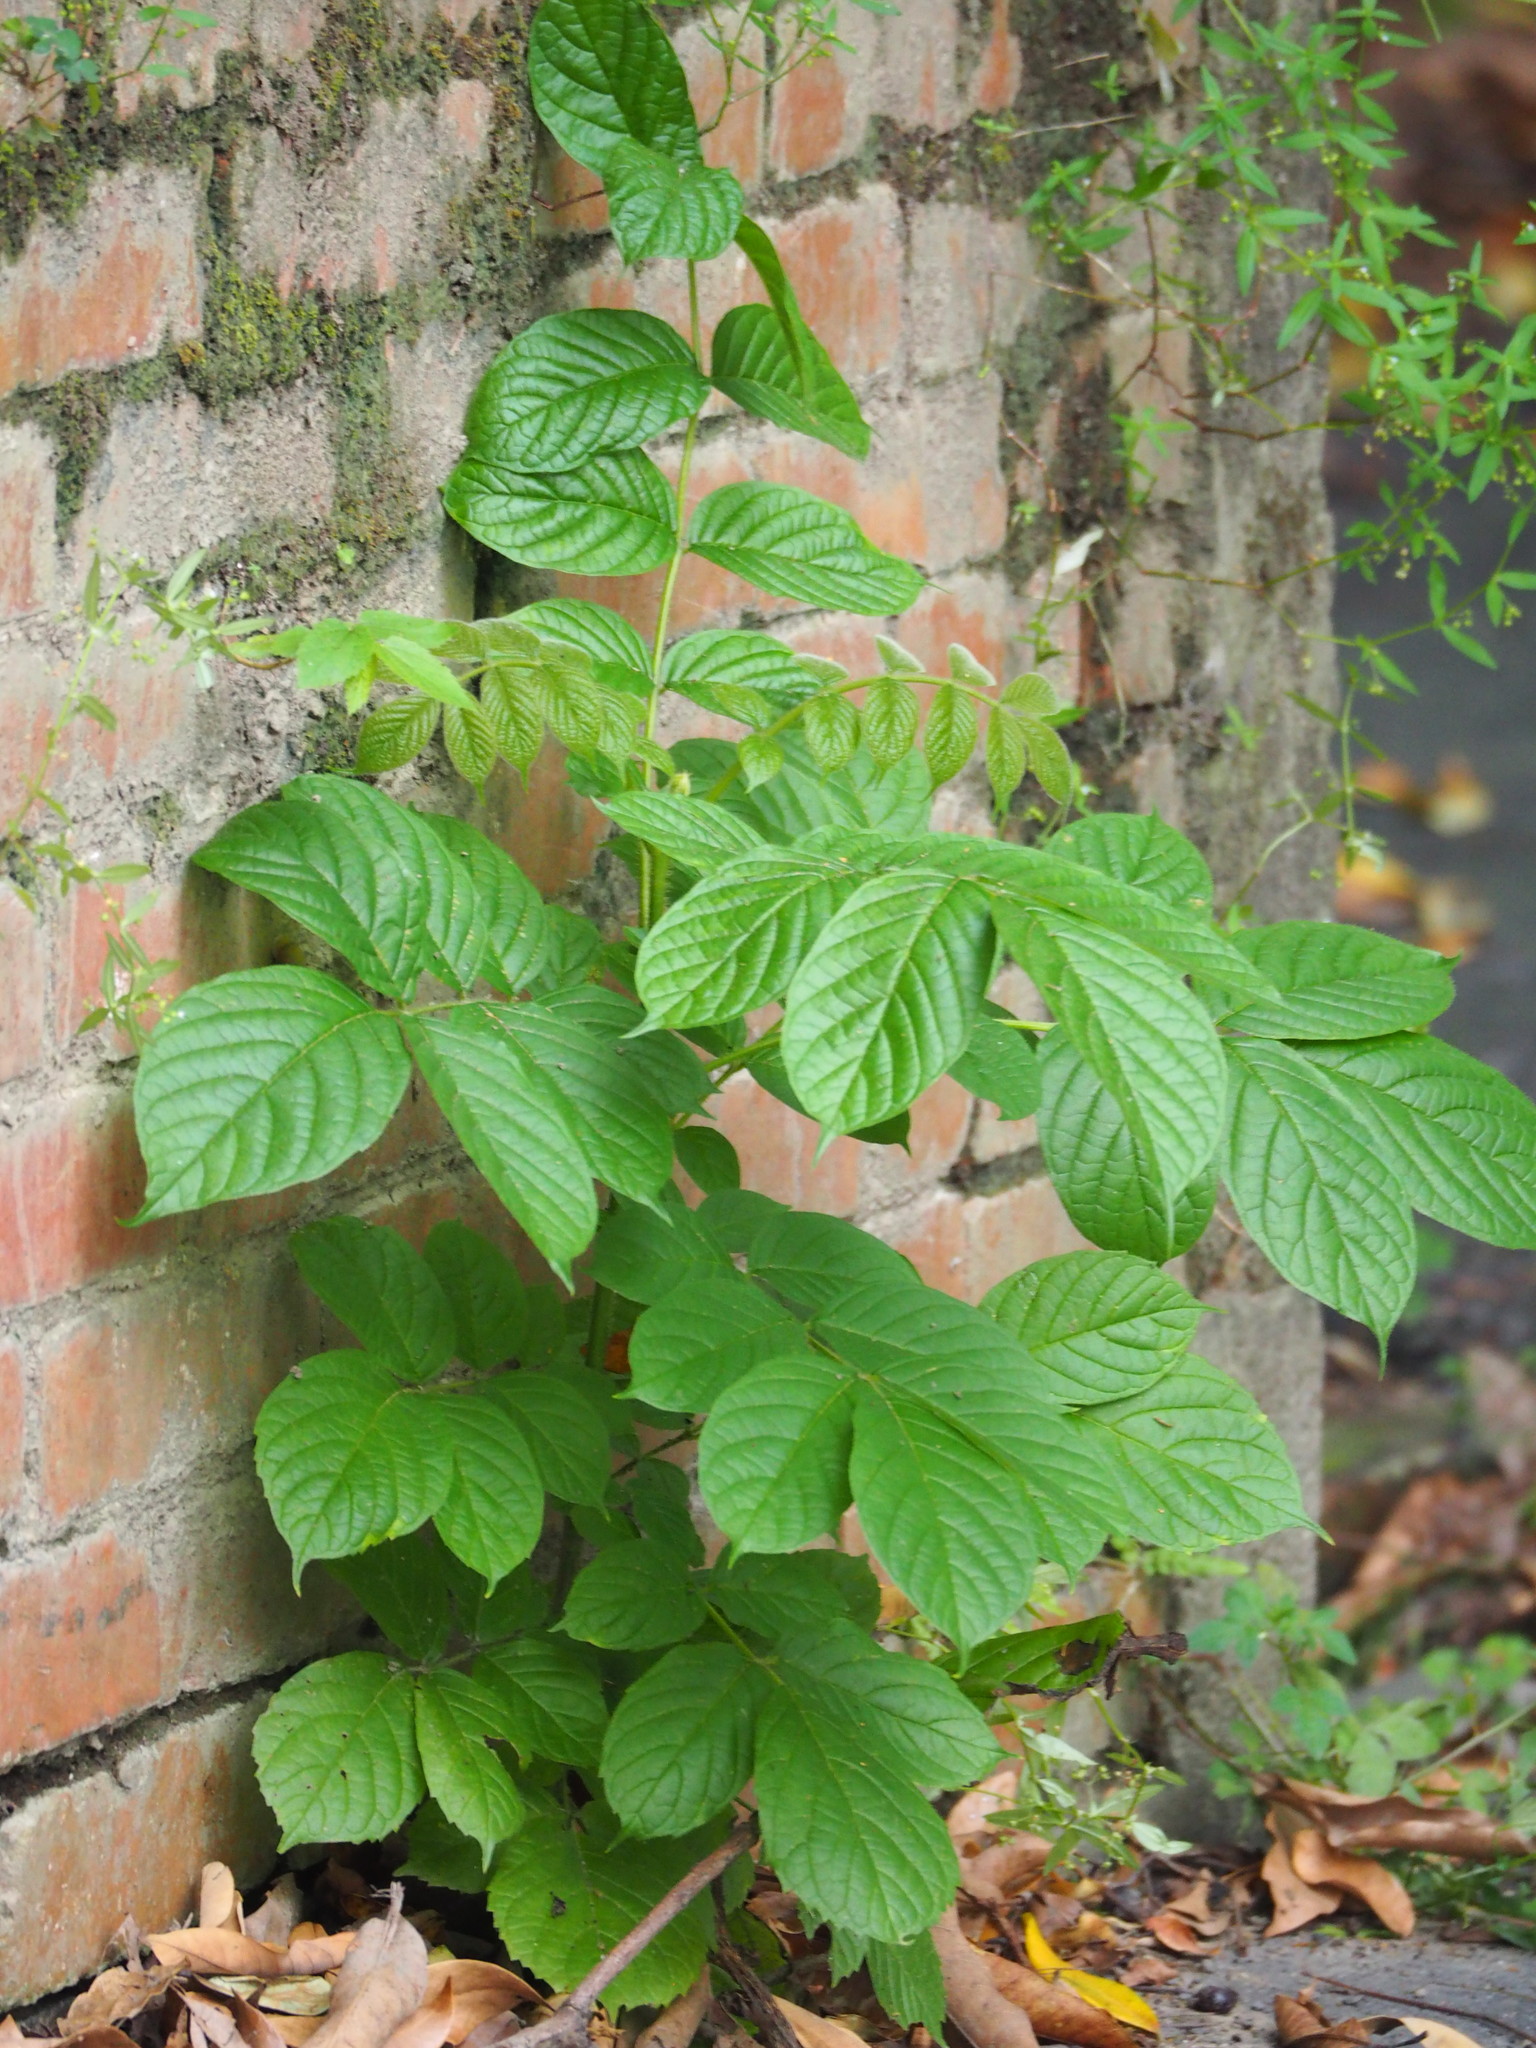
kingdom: Plantae
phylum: Tracheophyta
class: Magnoliopsida
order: Lamiales
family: Bignoniaceae
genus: Spathodea
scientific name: Spathodea campanulata
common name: African tuliptree
